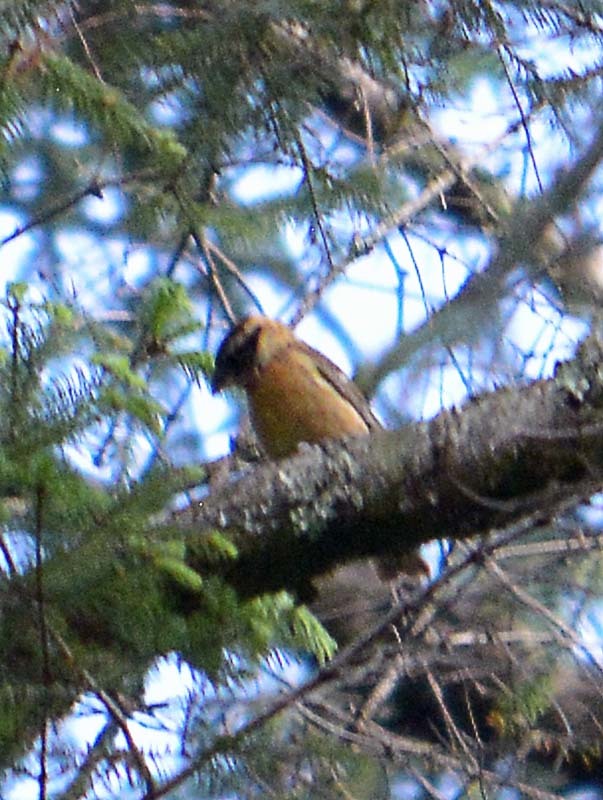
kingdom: Animalia
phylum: Chordata
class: Aves
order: Passeriformes
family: Cardinalidae
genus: Pheucticus
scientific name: Pheucticus melanocephalus
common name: Black-headed grosbeak
